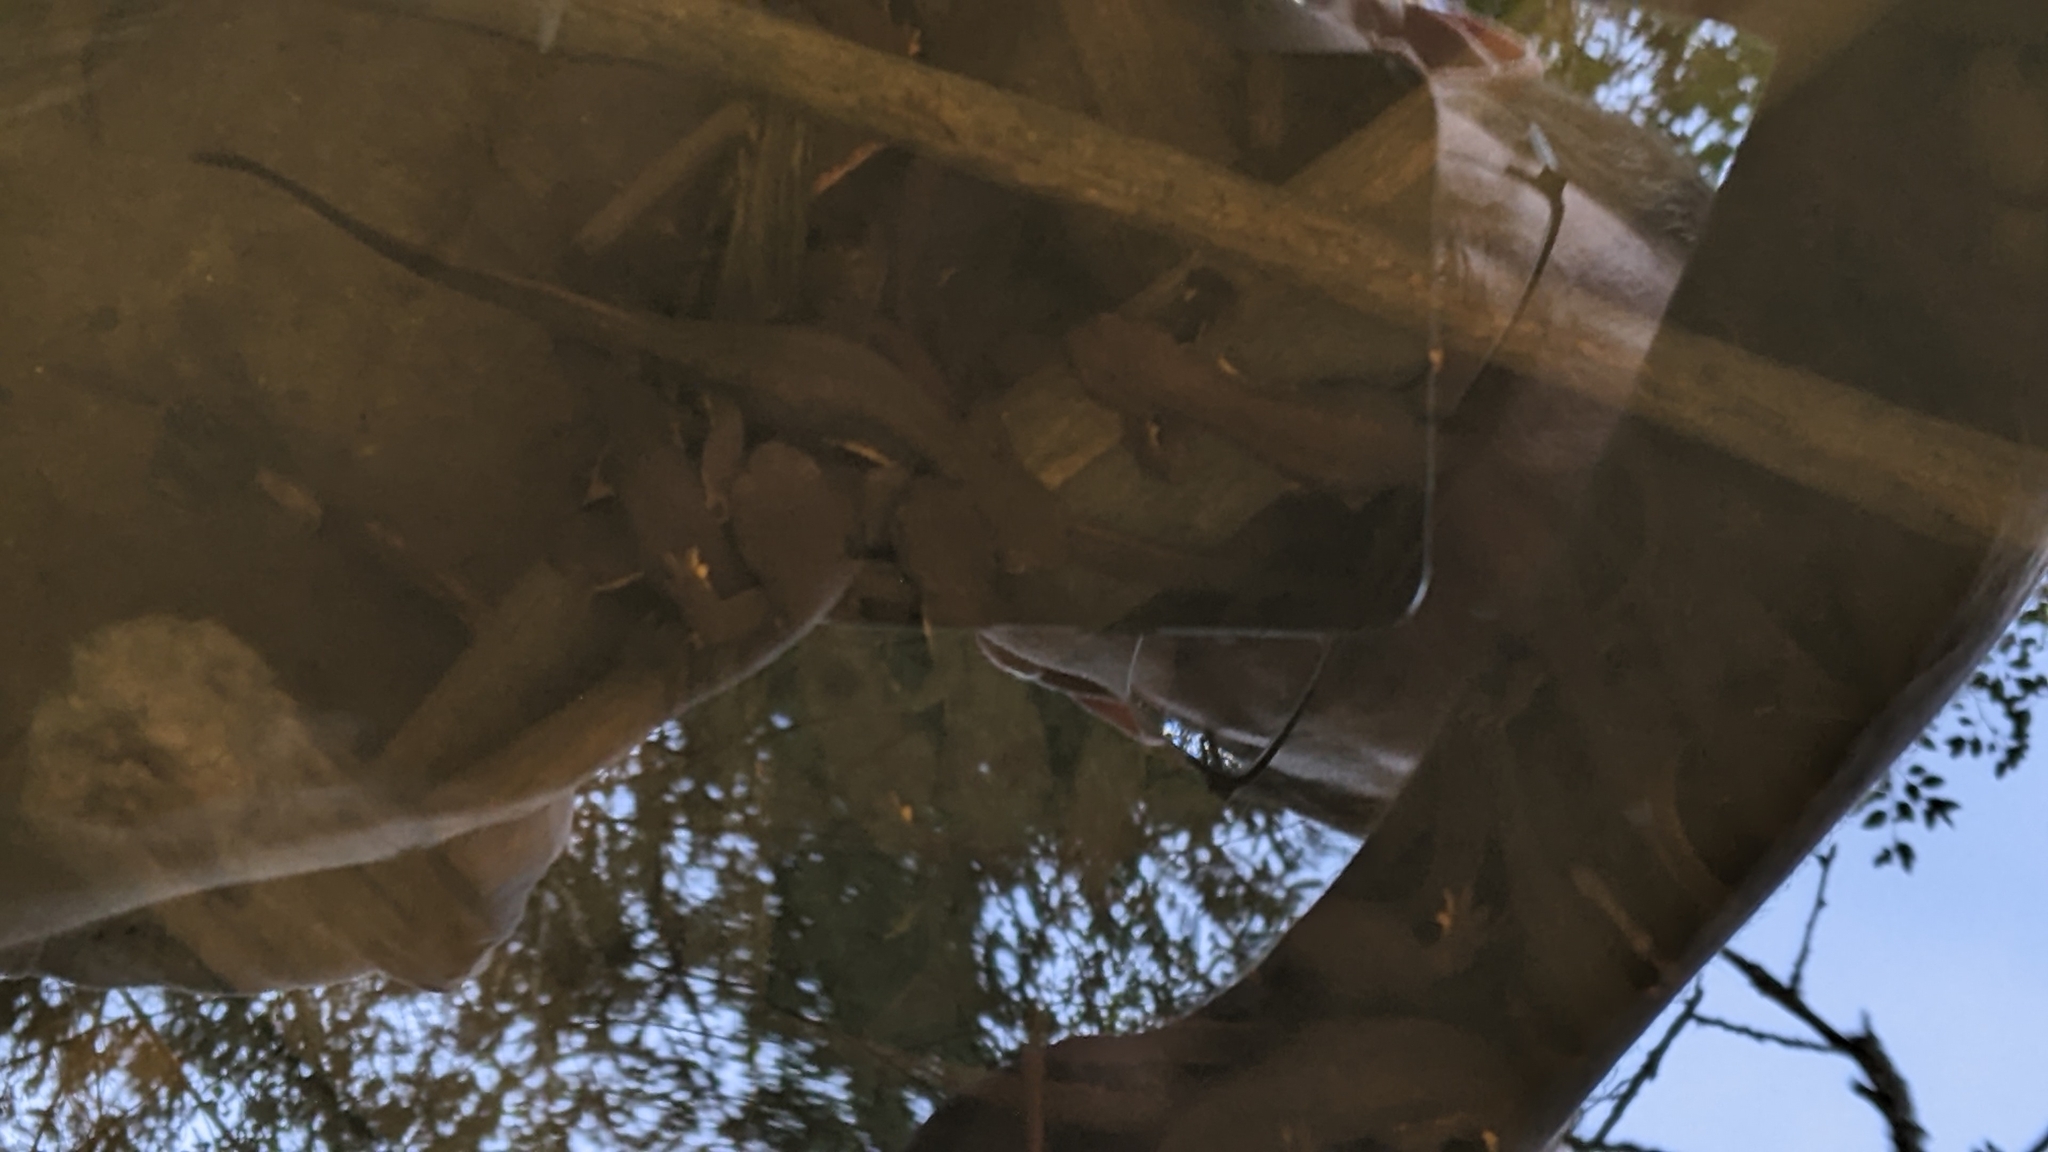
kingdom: Animalia
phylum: Chordata
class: Amphibia
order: Caudata
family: Salamandridae
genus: Taricha
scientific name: Taricha granulosa
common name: Roughskin newt
